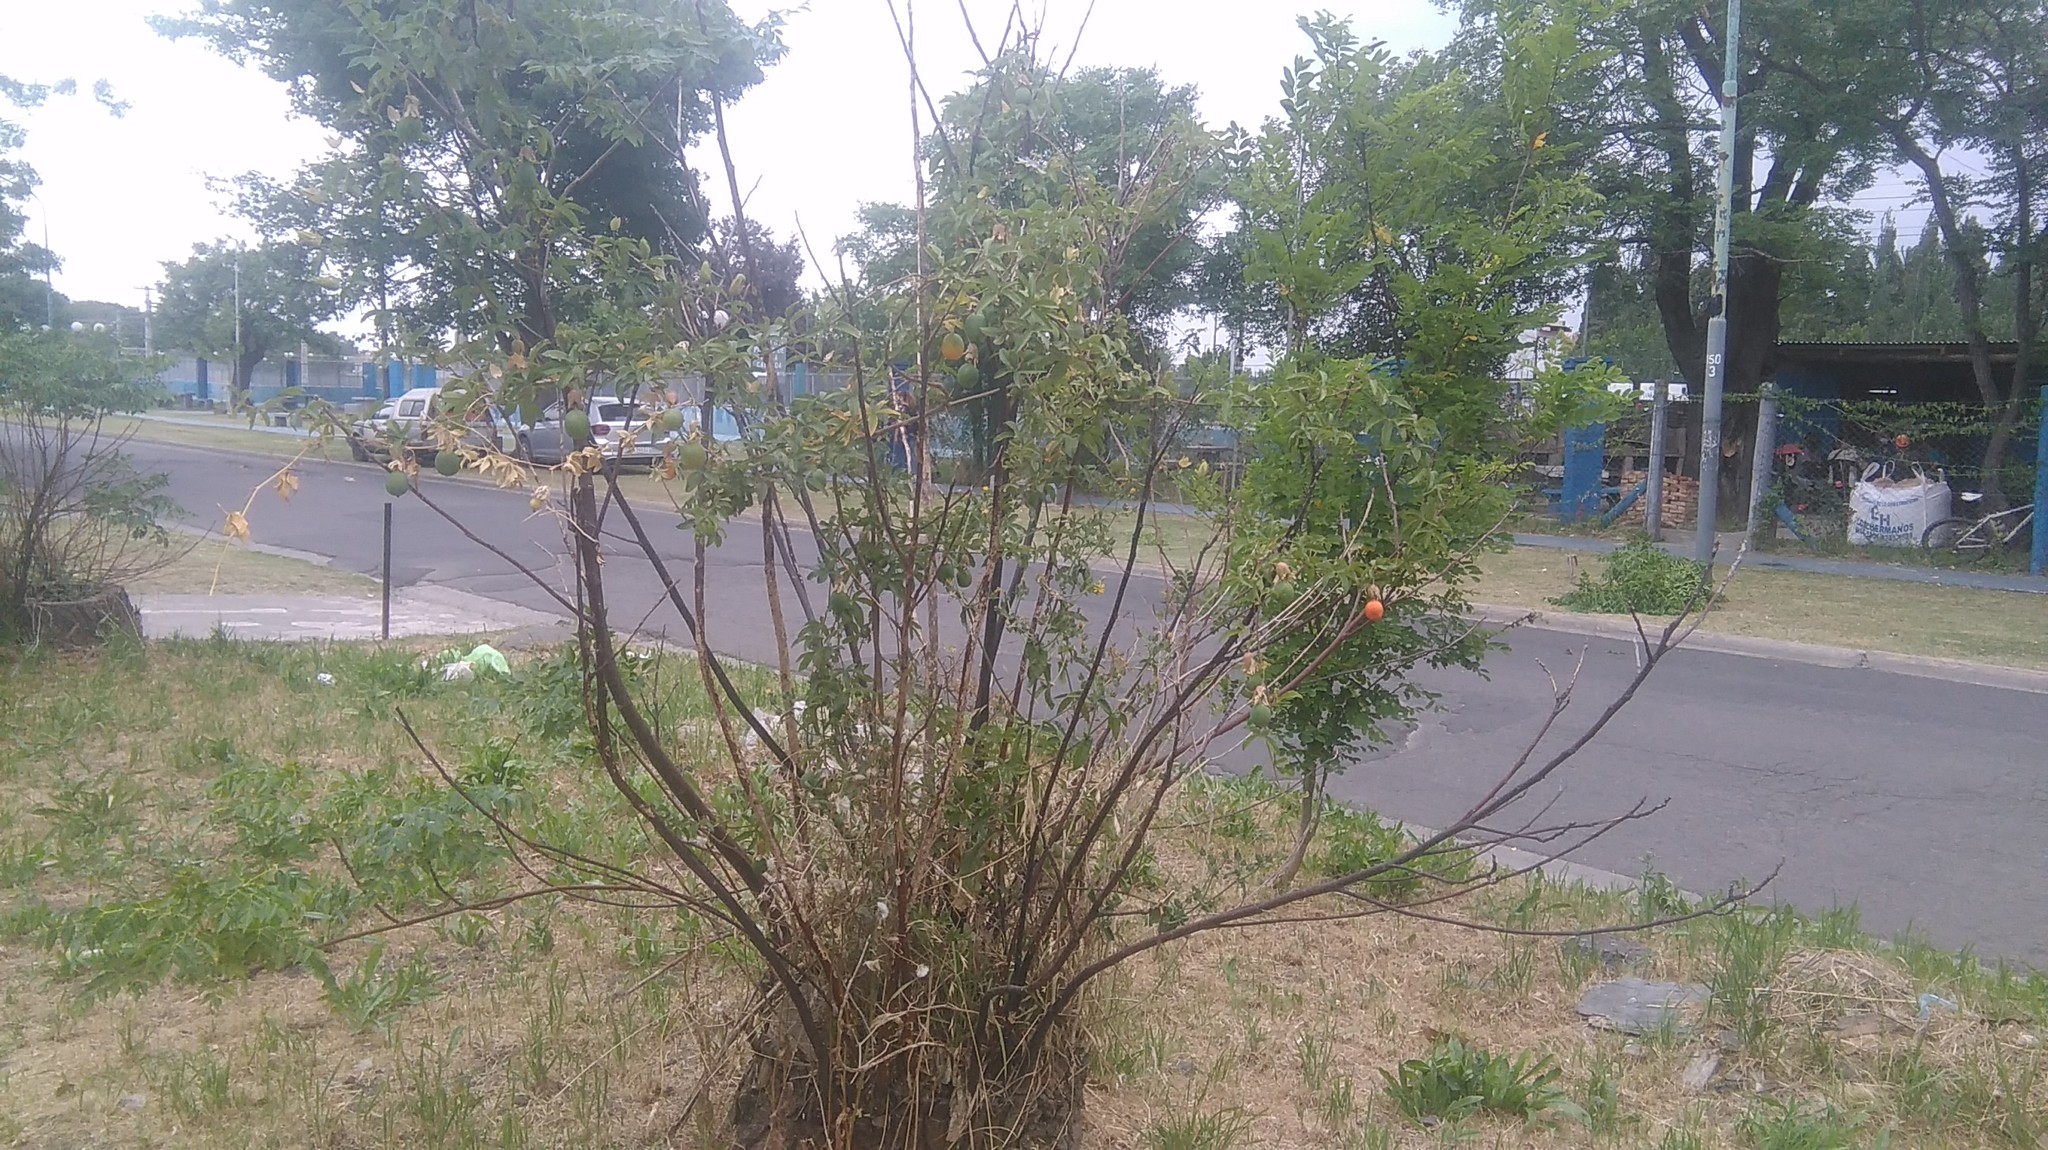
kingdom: Plantae
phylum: Tracheophyta
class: Magnoliopsida
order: Malpighiales
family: Passifloraceae
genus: Passiflora
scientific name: Passiflora caerulea
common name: Blue passionflower
